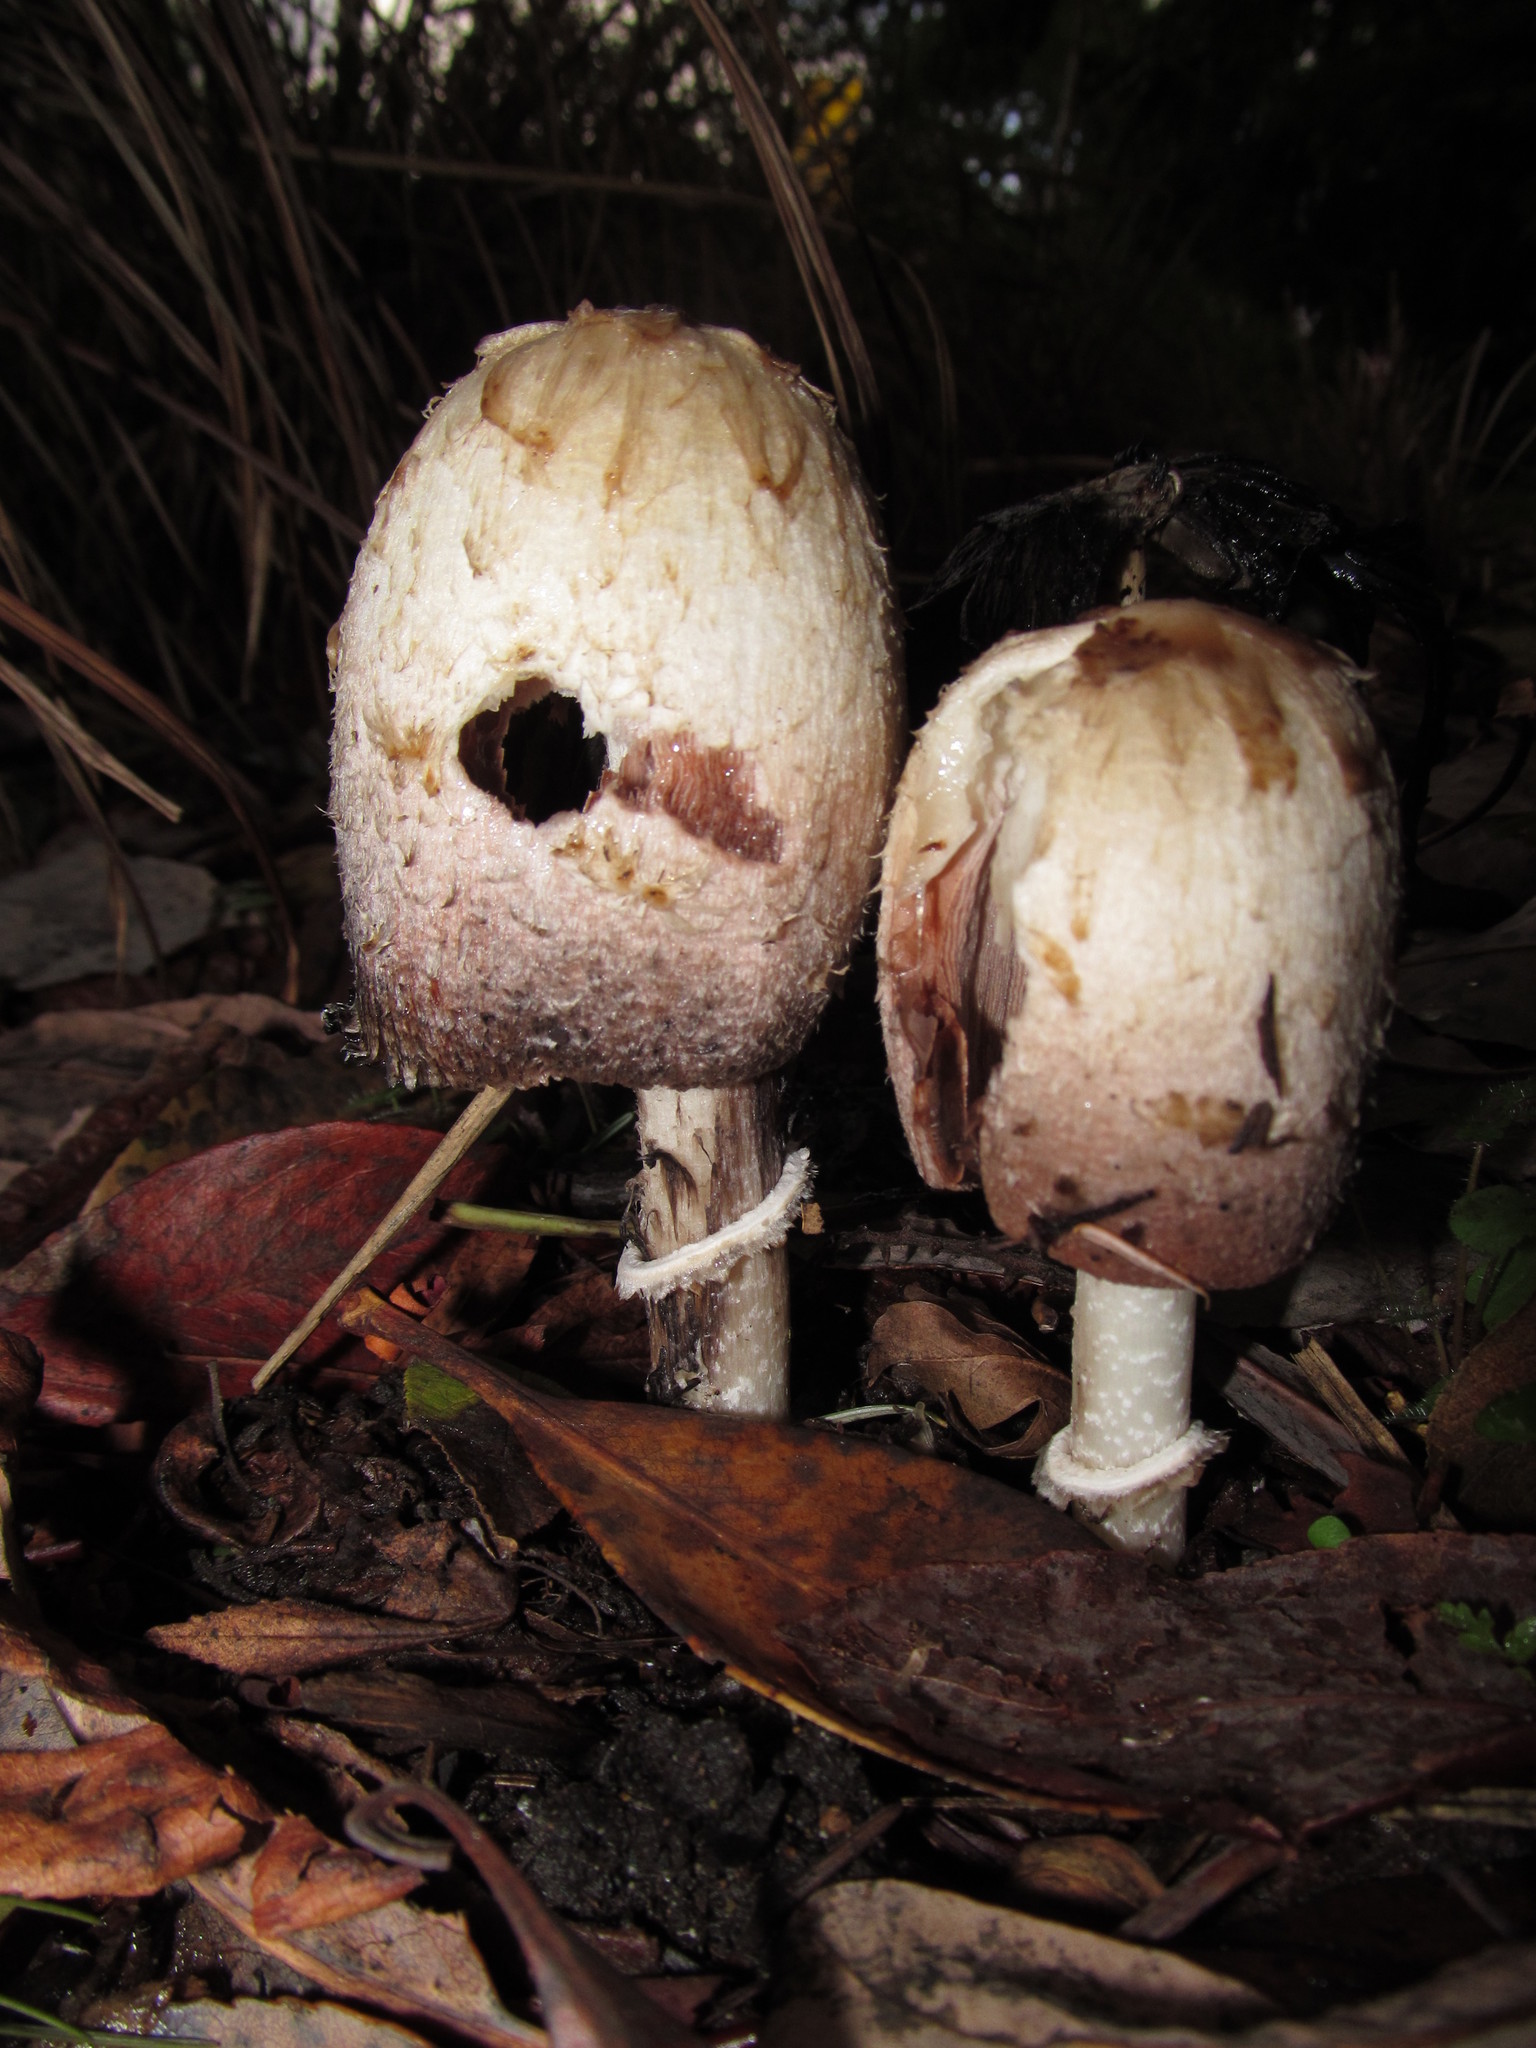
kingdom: Fungi
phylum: Basidiomycota
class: Agaricomycetes
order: Agaricales
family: Agaricaceae
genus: Coprinus
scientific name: Coprinus comatus
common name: Lawyer's wig
